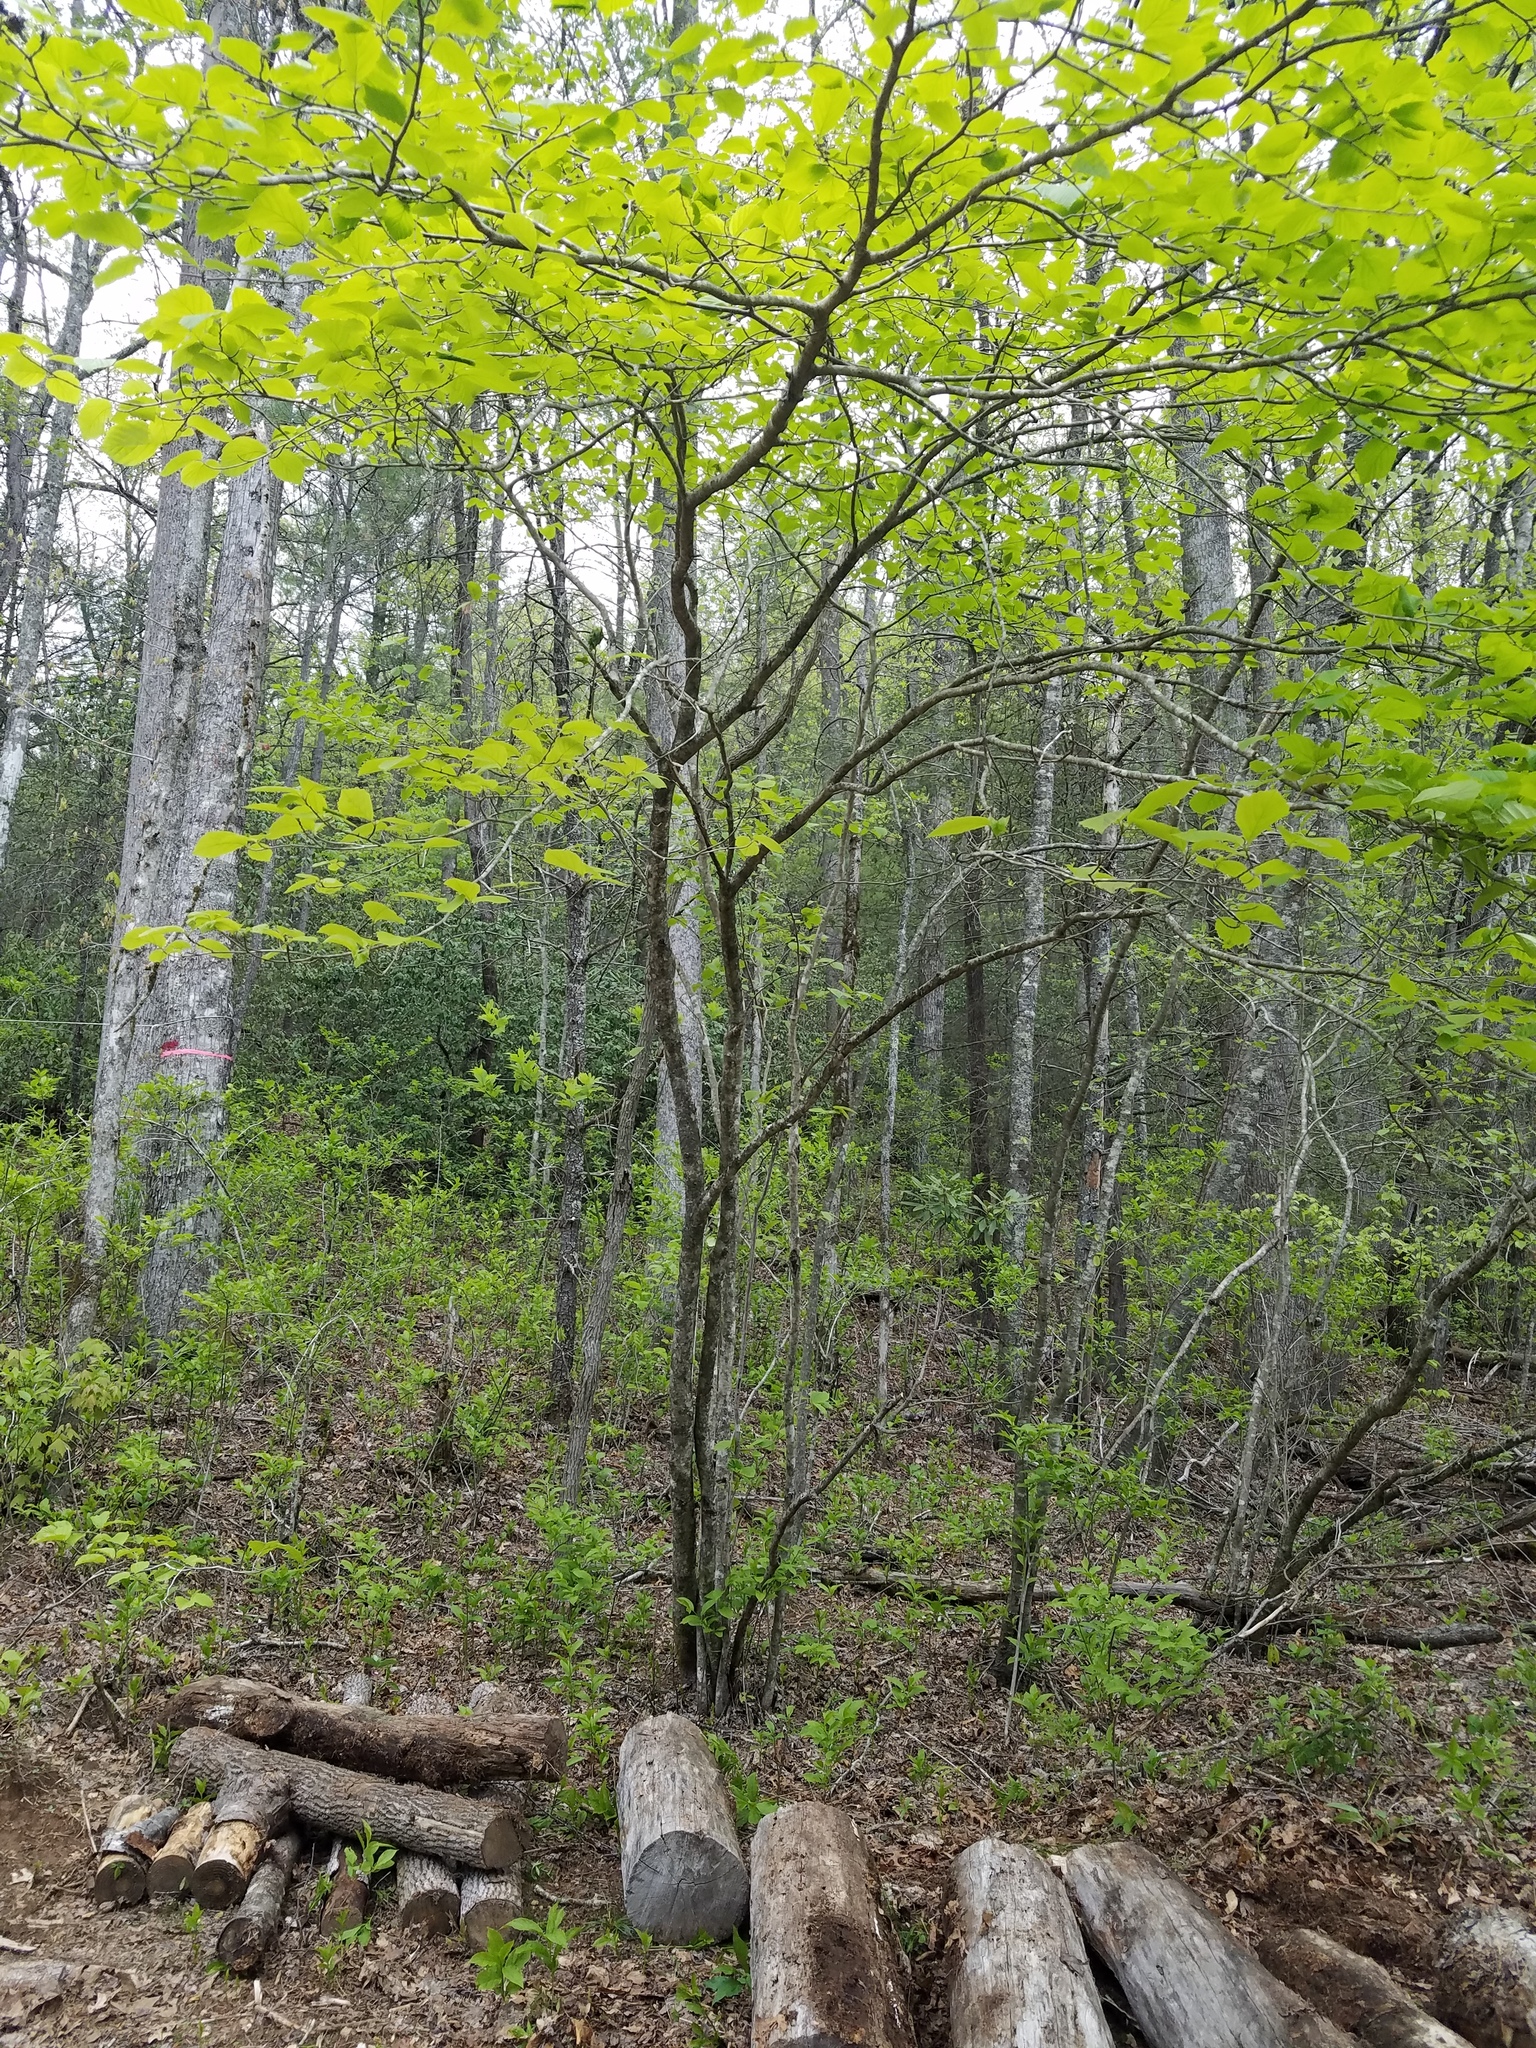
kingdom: Plantae
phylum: Tracheophyta
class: Magnoliopsida
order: Saxifragales
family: Hamamelidaceae
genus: Hamamelis
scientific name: Hamamelis virginiana
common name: Witch-hazel
